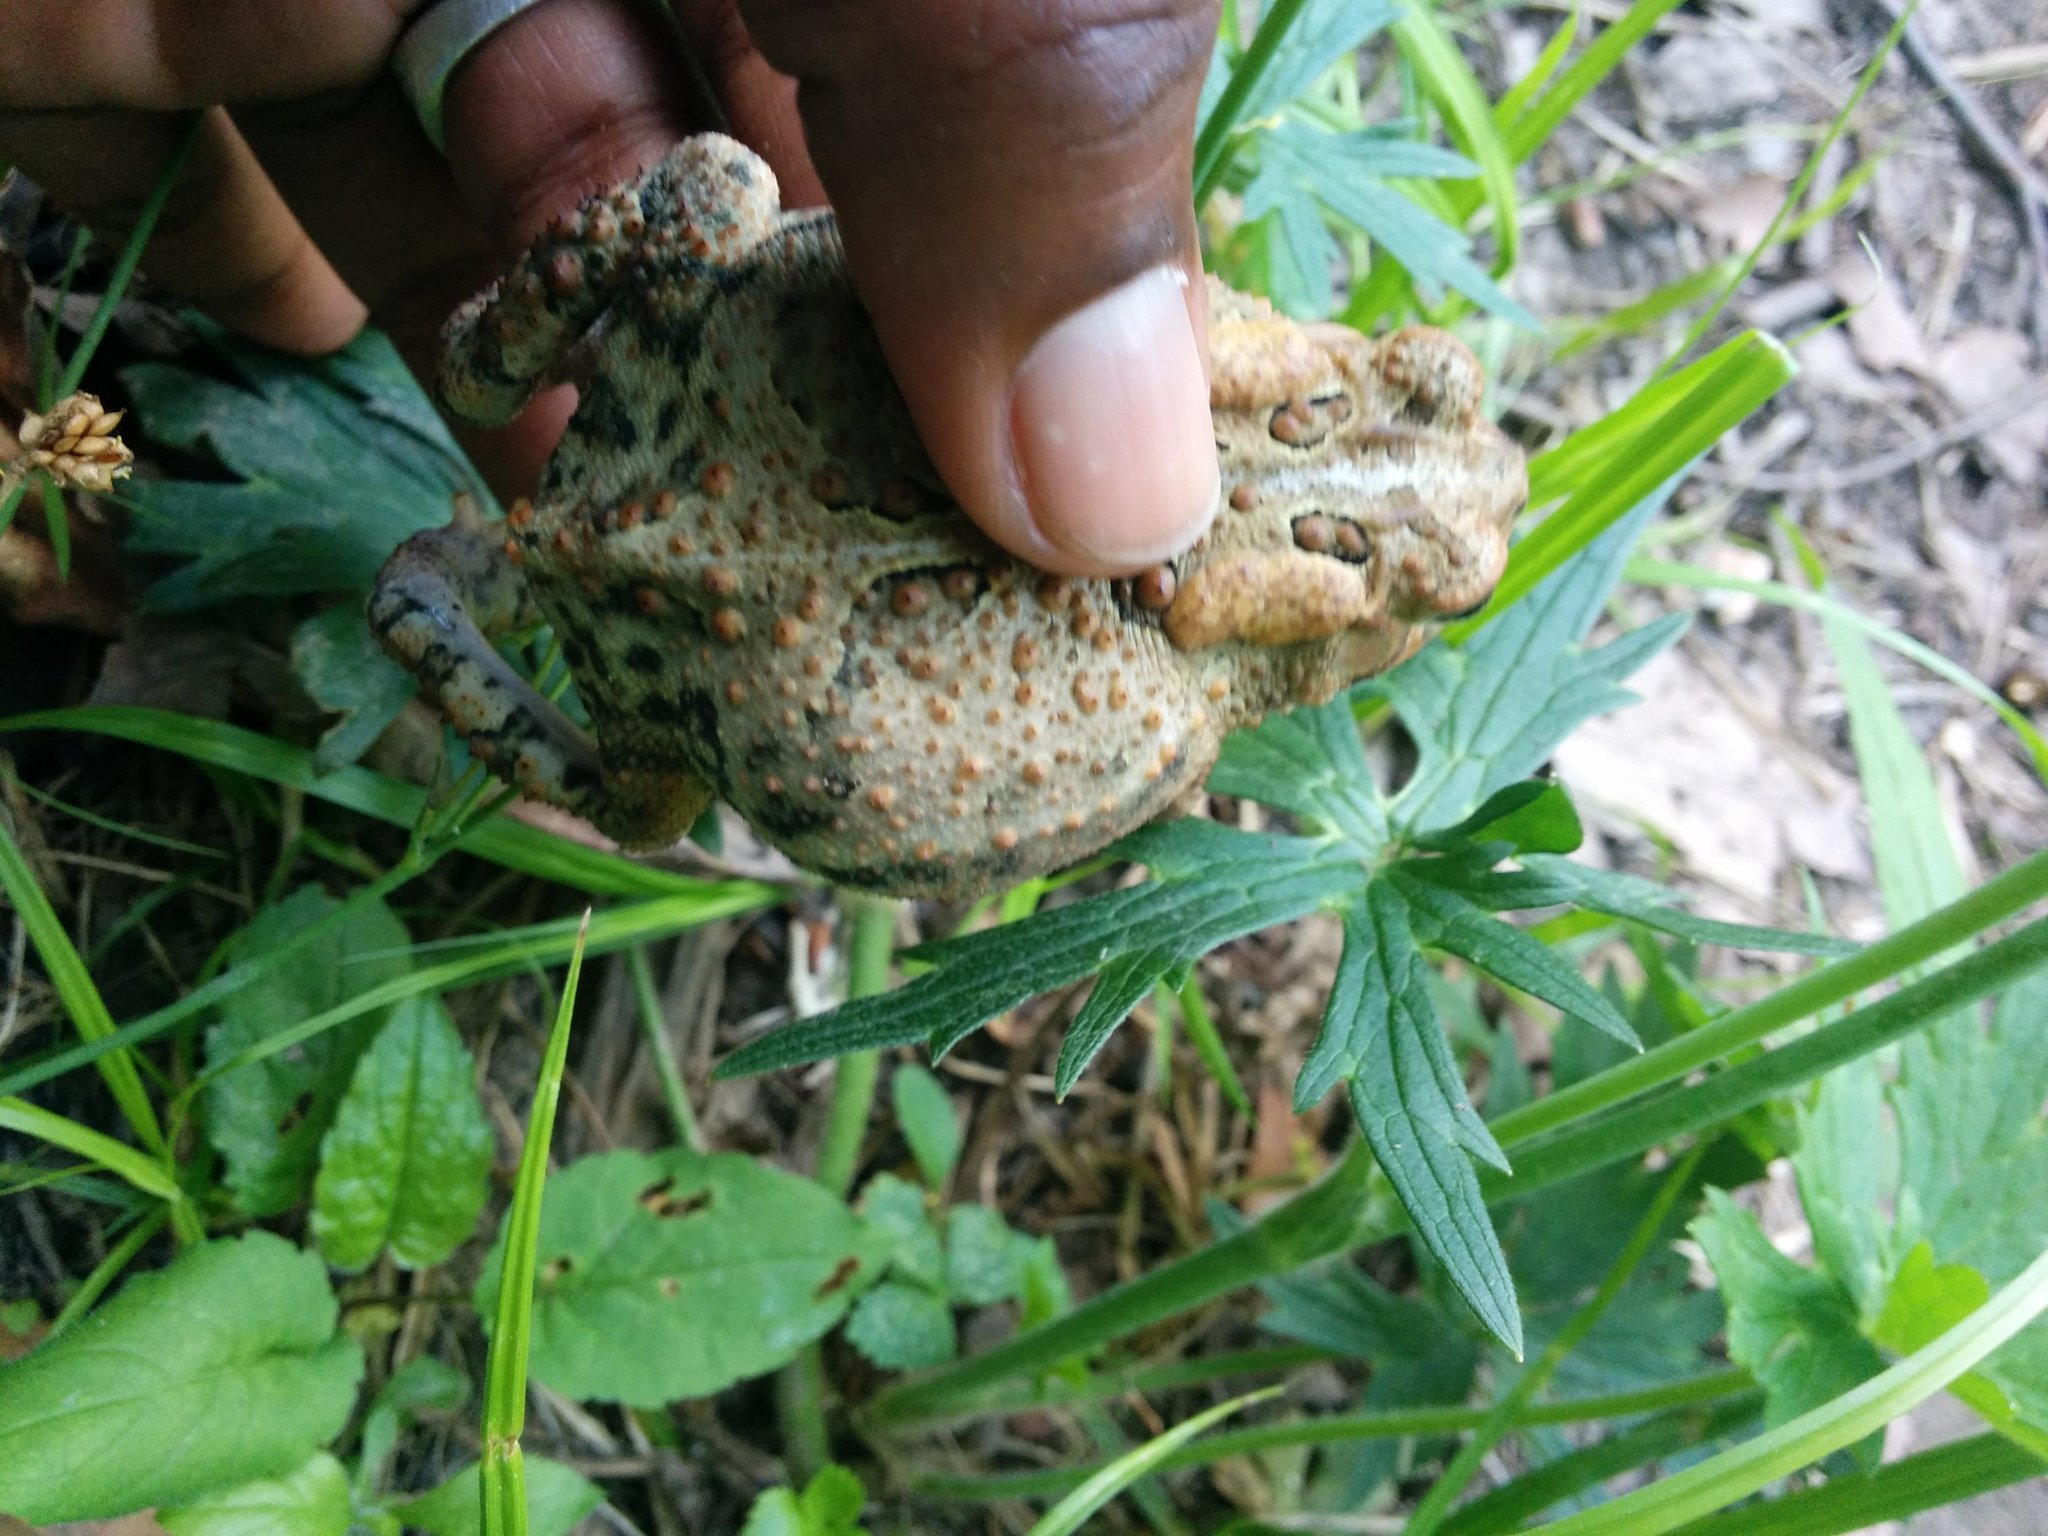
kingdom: Animalia
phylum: Chordata
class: Amphibia
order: Anura
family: Bufonidae
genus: Anaxyrus
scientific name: Anaxyrus americanus
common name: American toad
